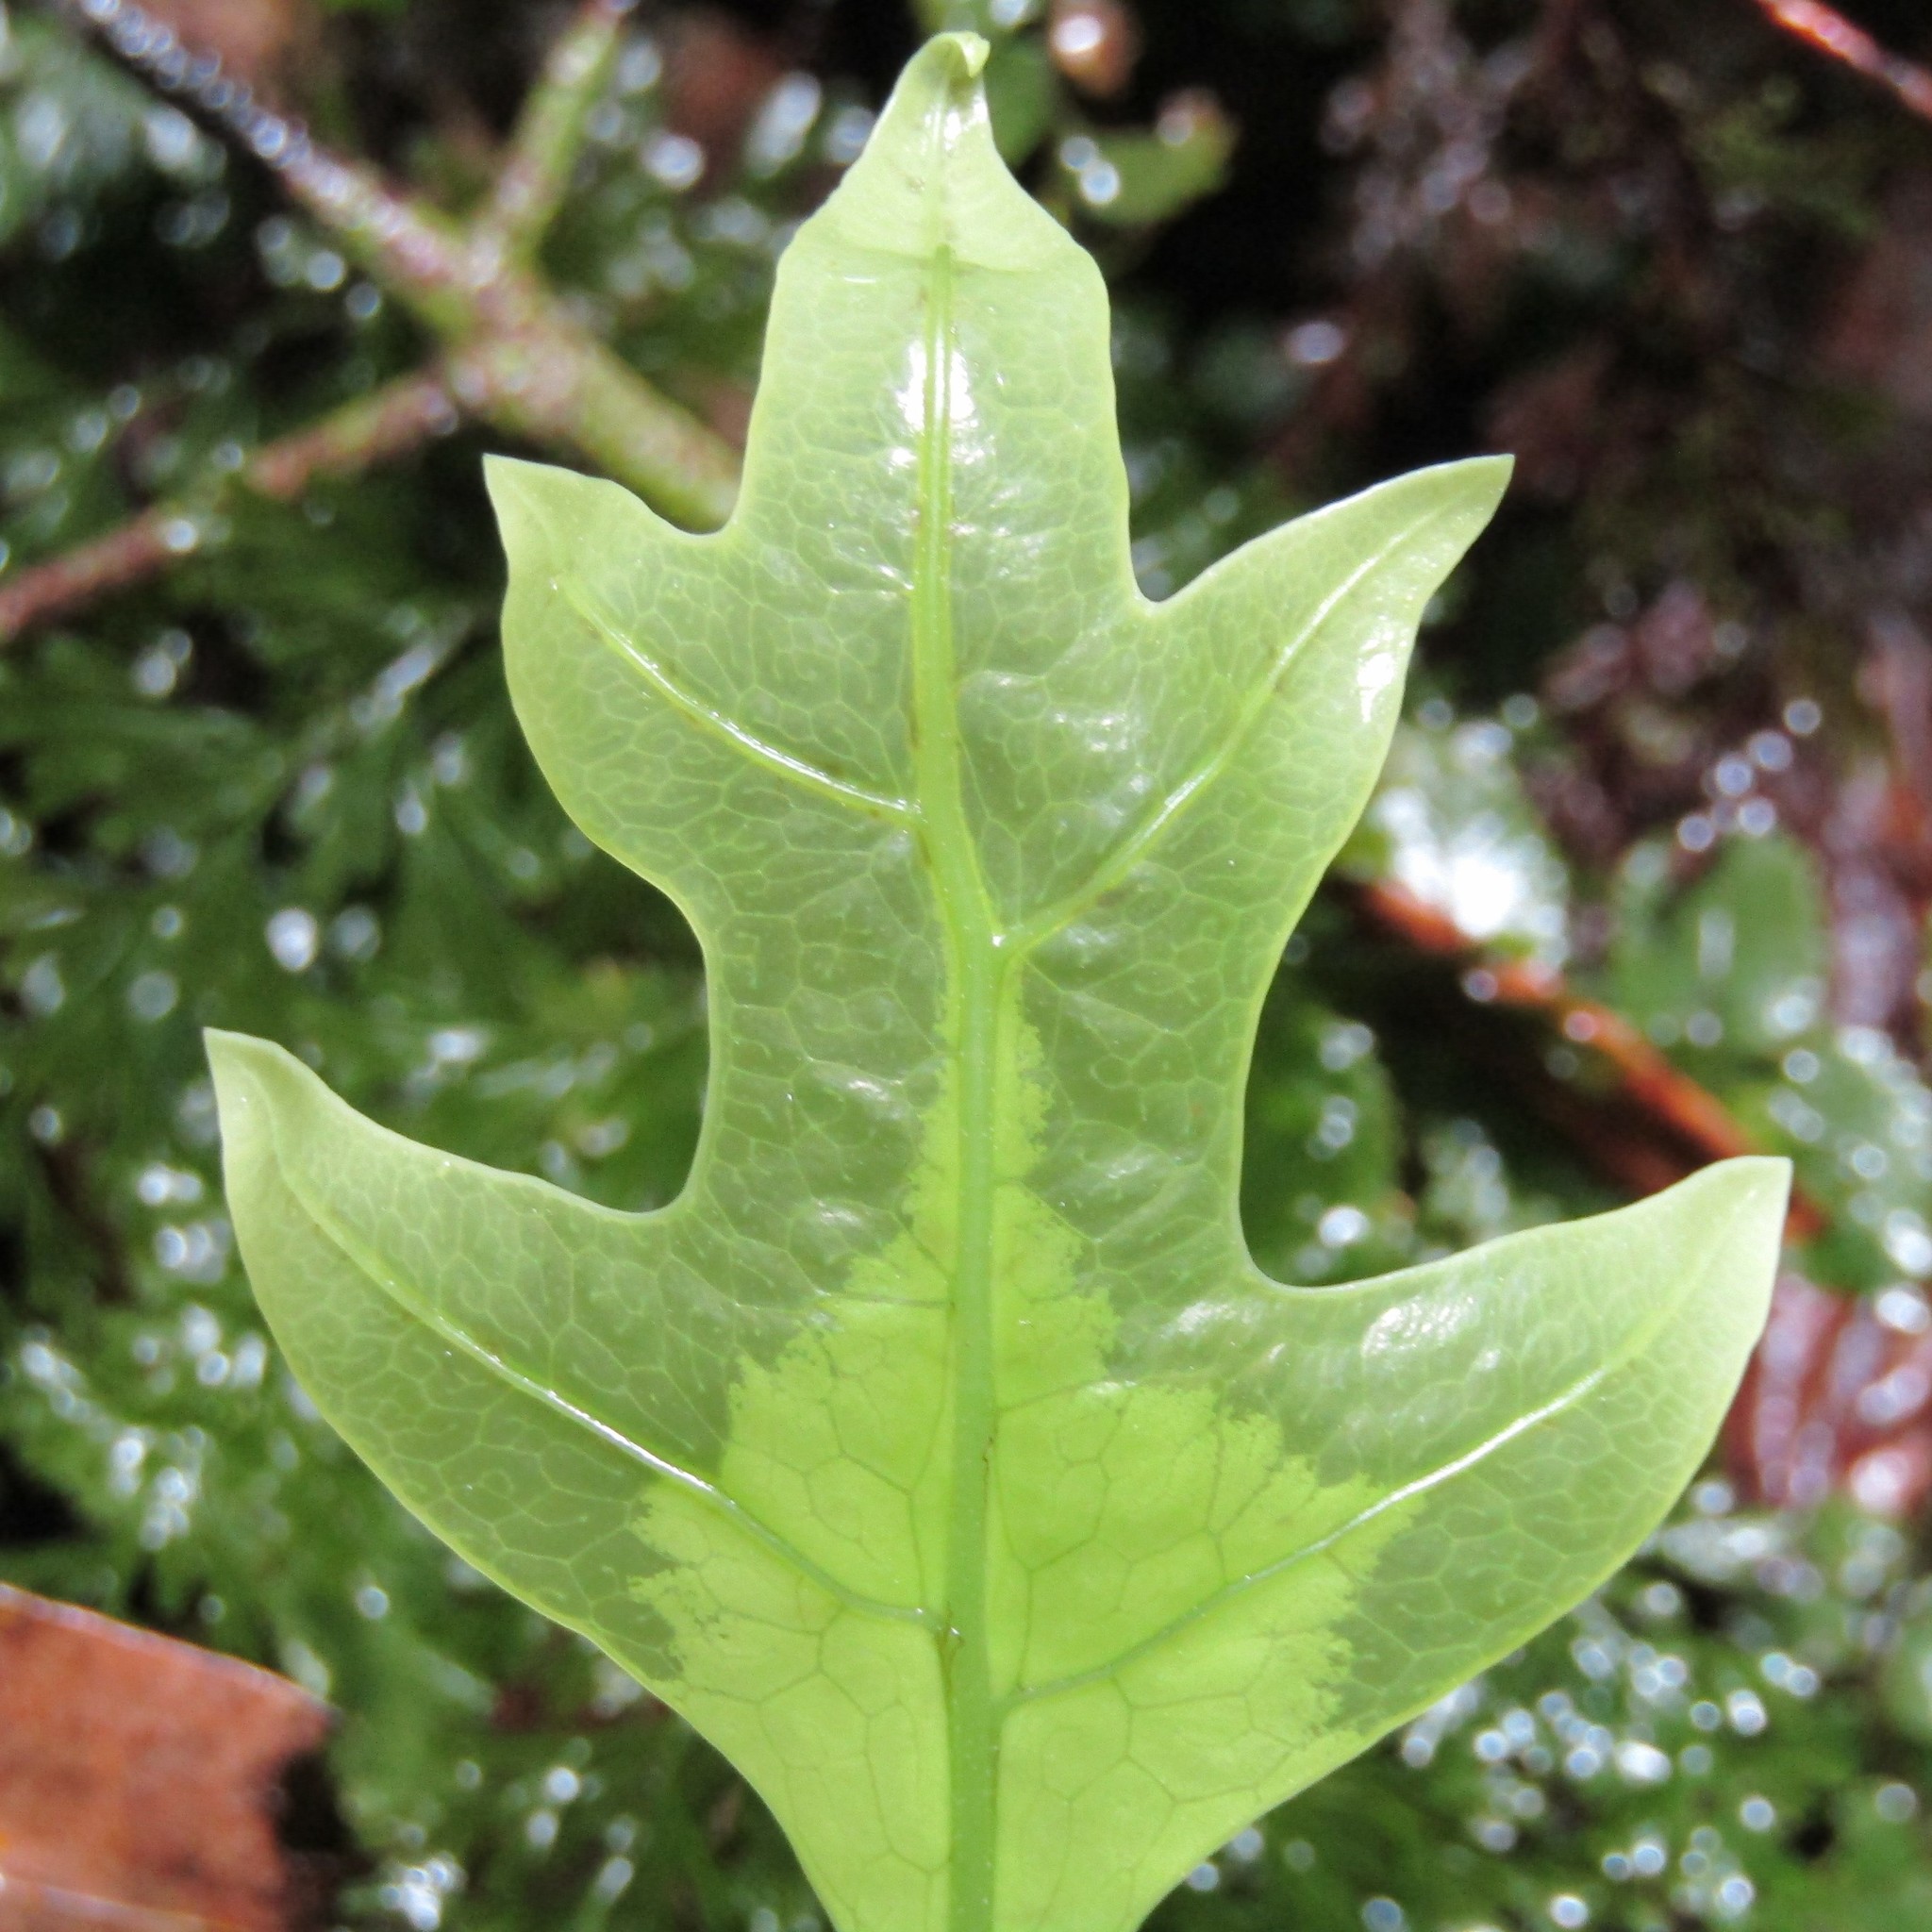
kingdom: Plantae
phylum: Tracheophyta
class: Polypodiopsida
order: Polypodiales
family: Polypodiaceae
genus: Lecanopteris
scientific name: Lecanopteris pustulata
